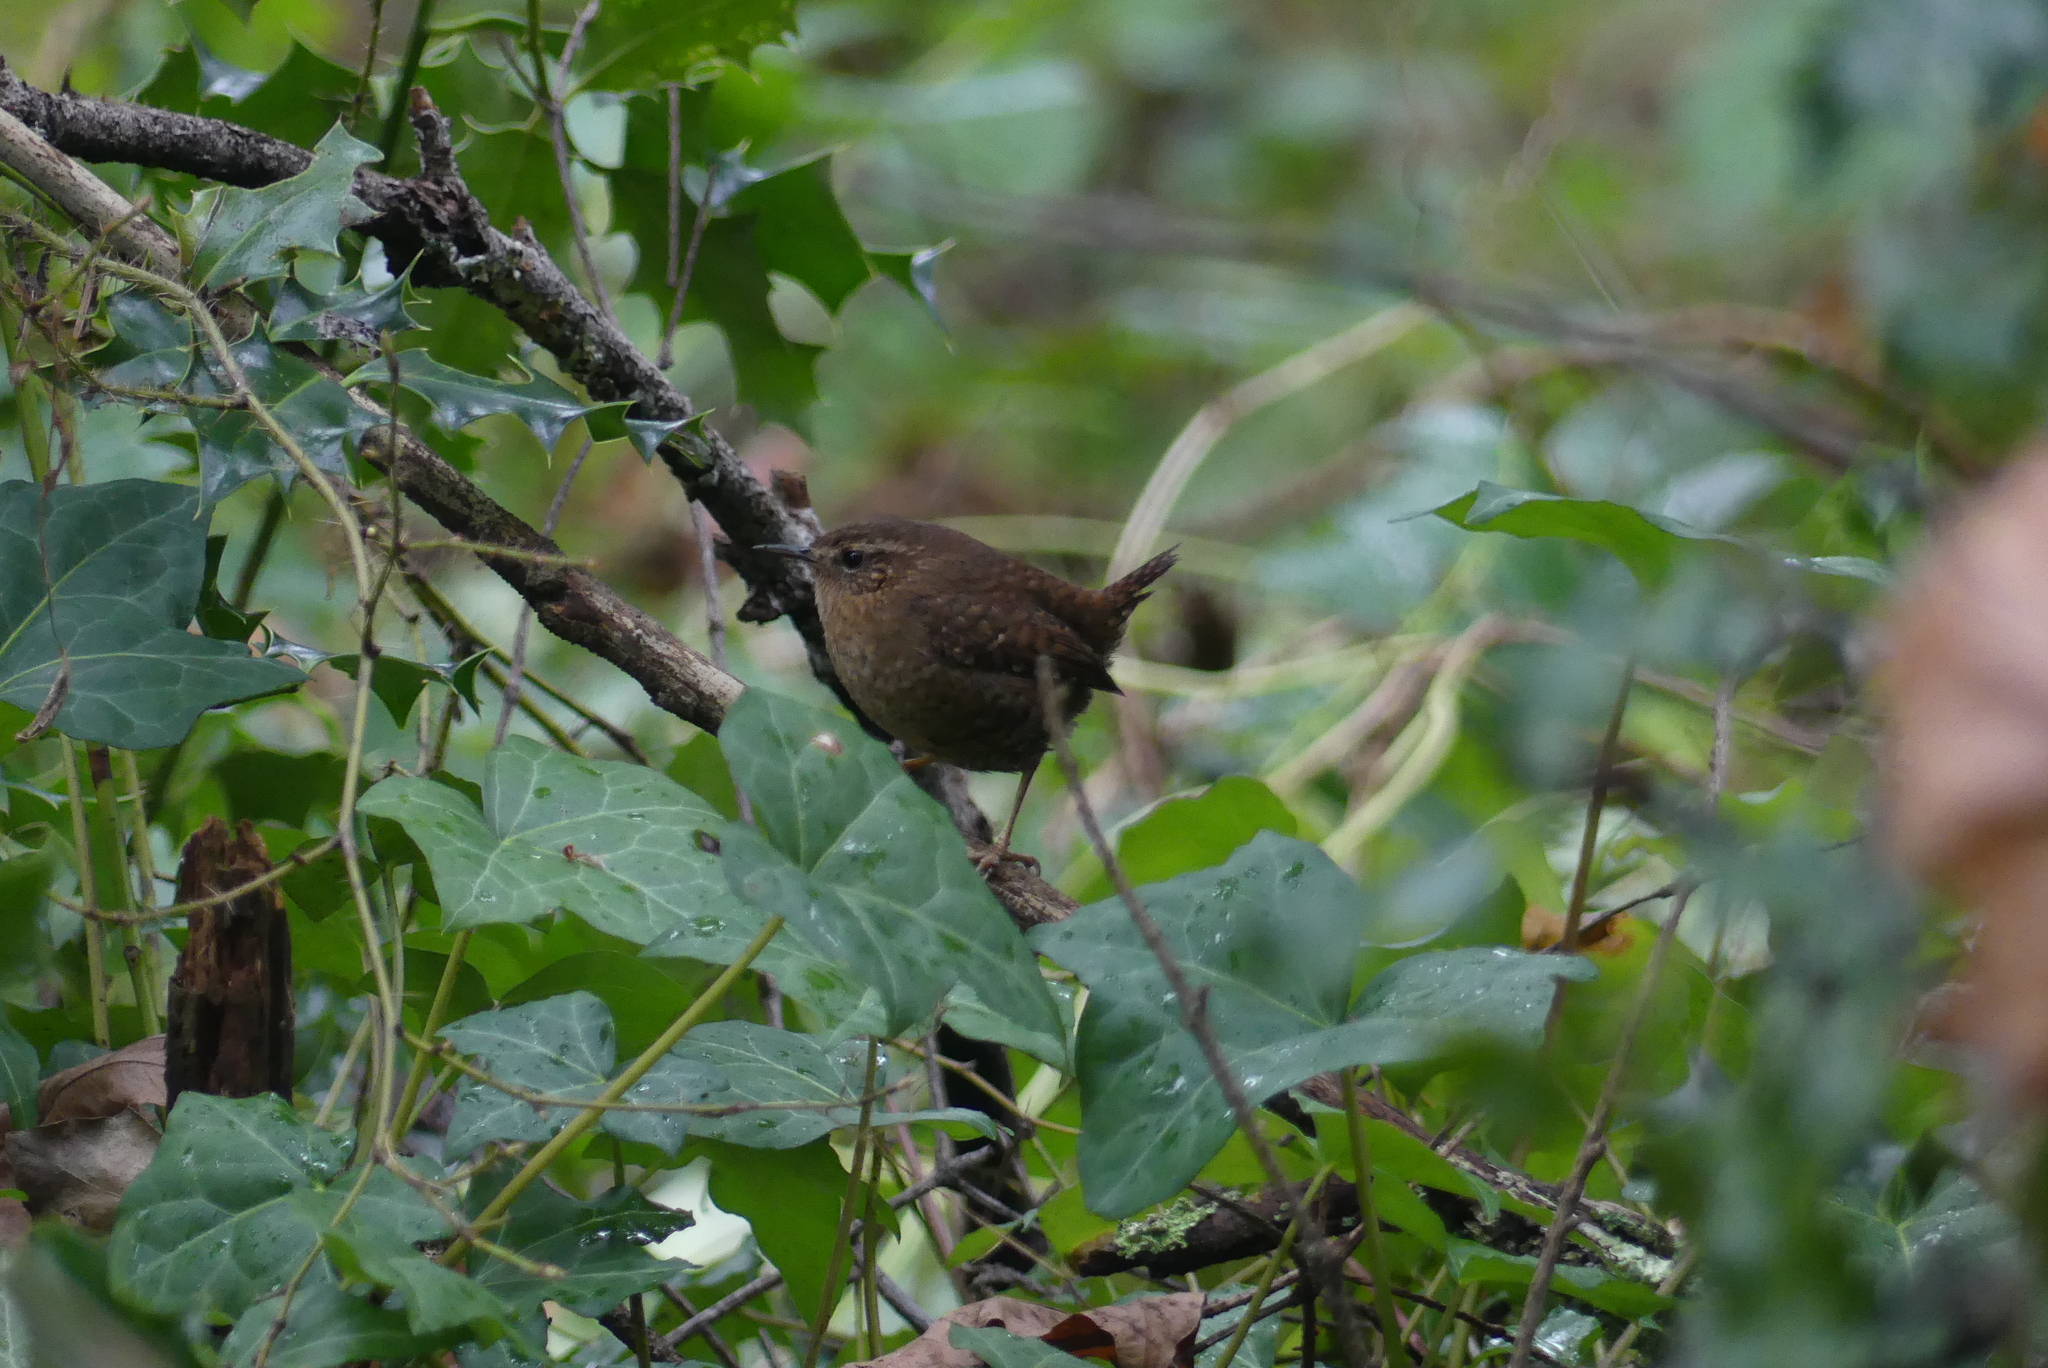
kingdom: Animalia
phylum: Chordata
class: Aves
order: Passeriformes
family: Troglodytidae
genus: Troglodytes
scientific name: Troglodytes pacificus
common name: Pacific wren
